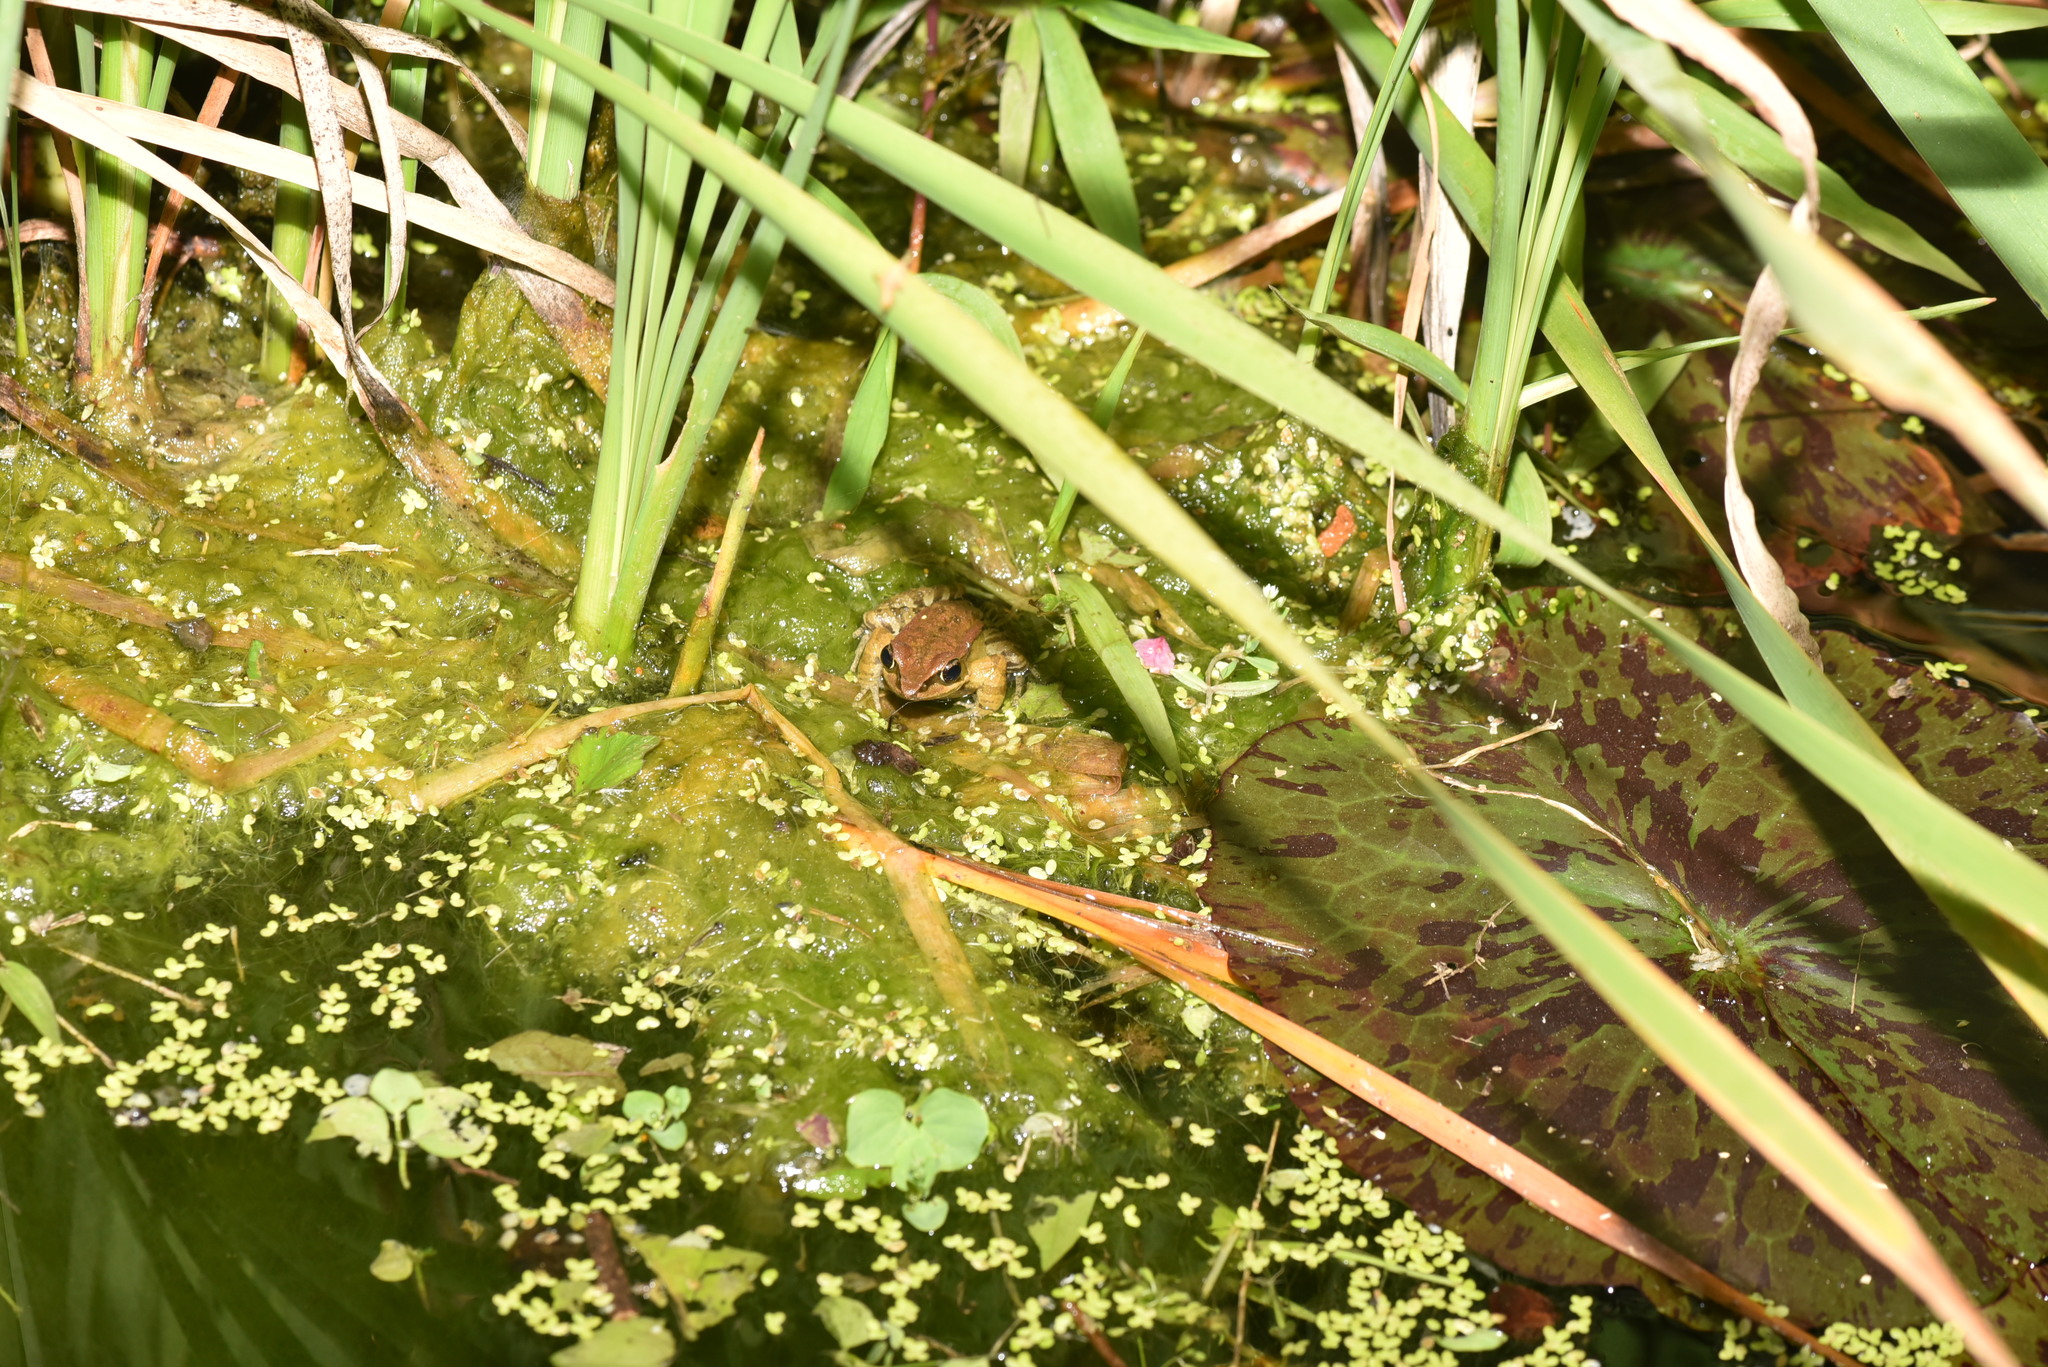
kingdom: Animalia
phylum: Chordata
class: Amphibia
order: Anura
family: Ranidae
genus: Hylarana
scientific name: Hylarana latouchii
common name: Broad-folded frog
